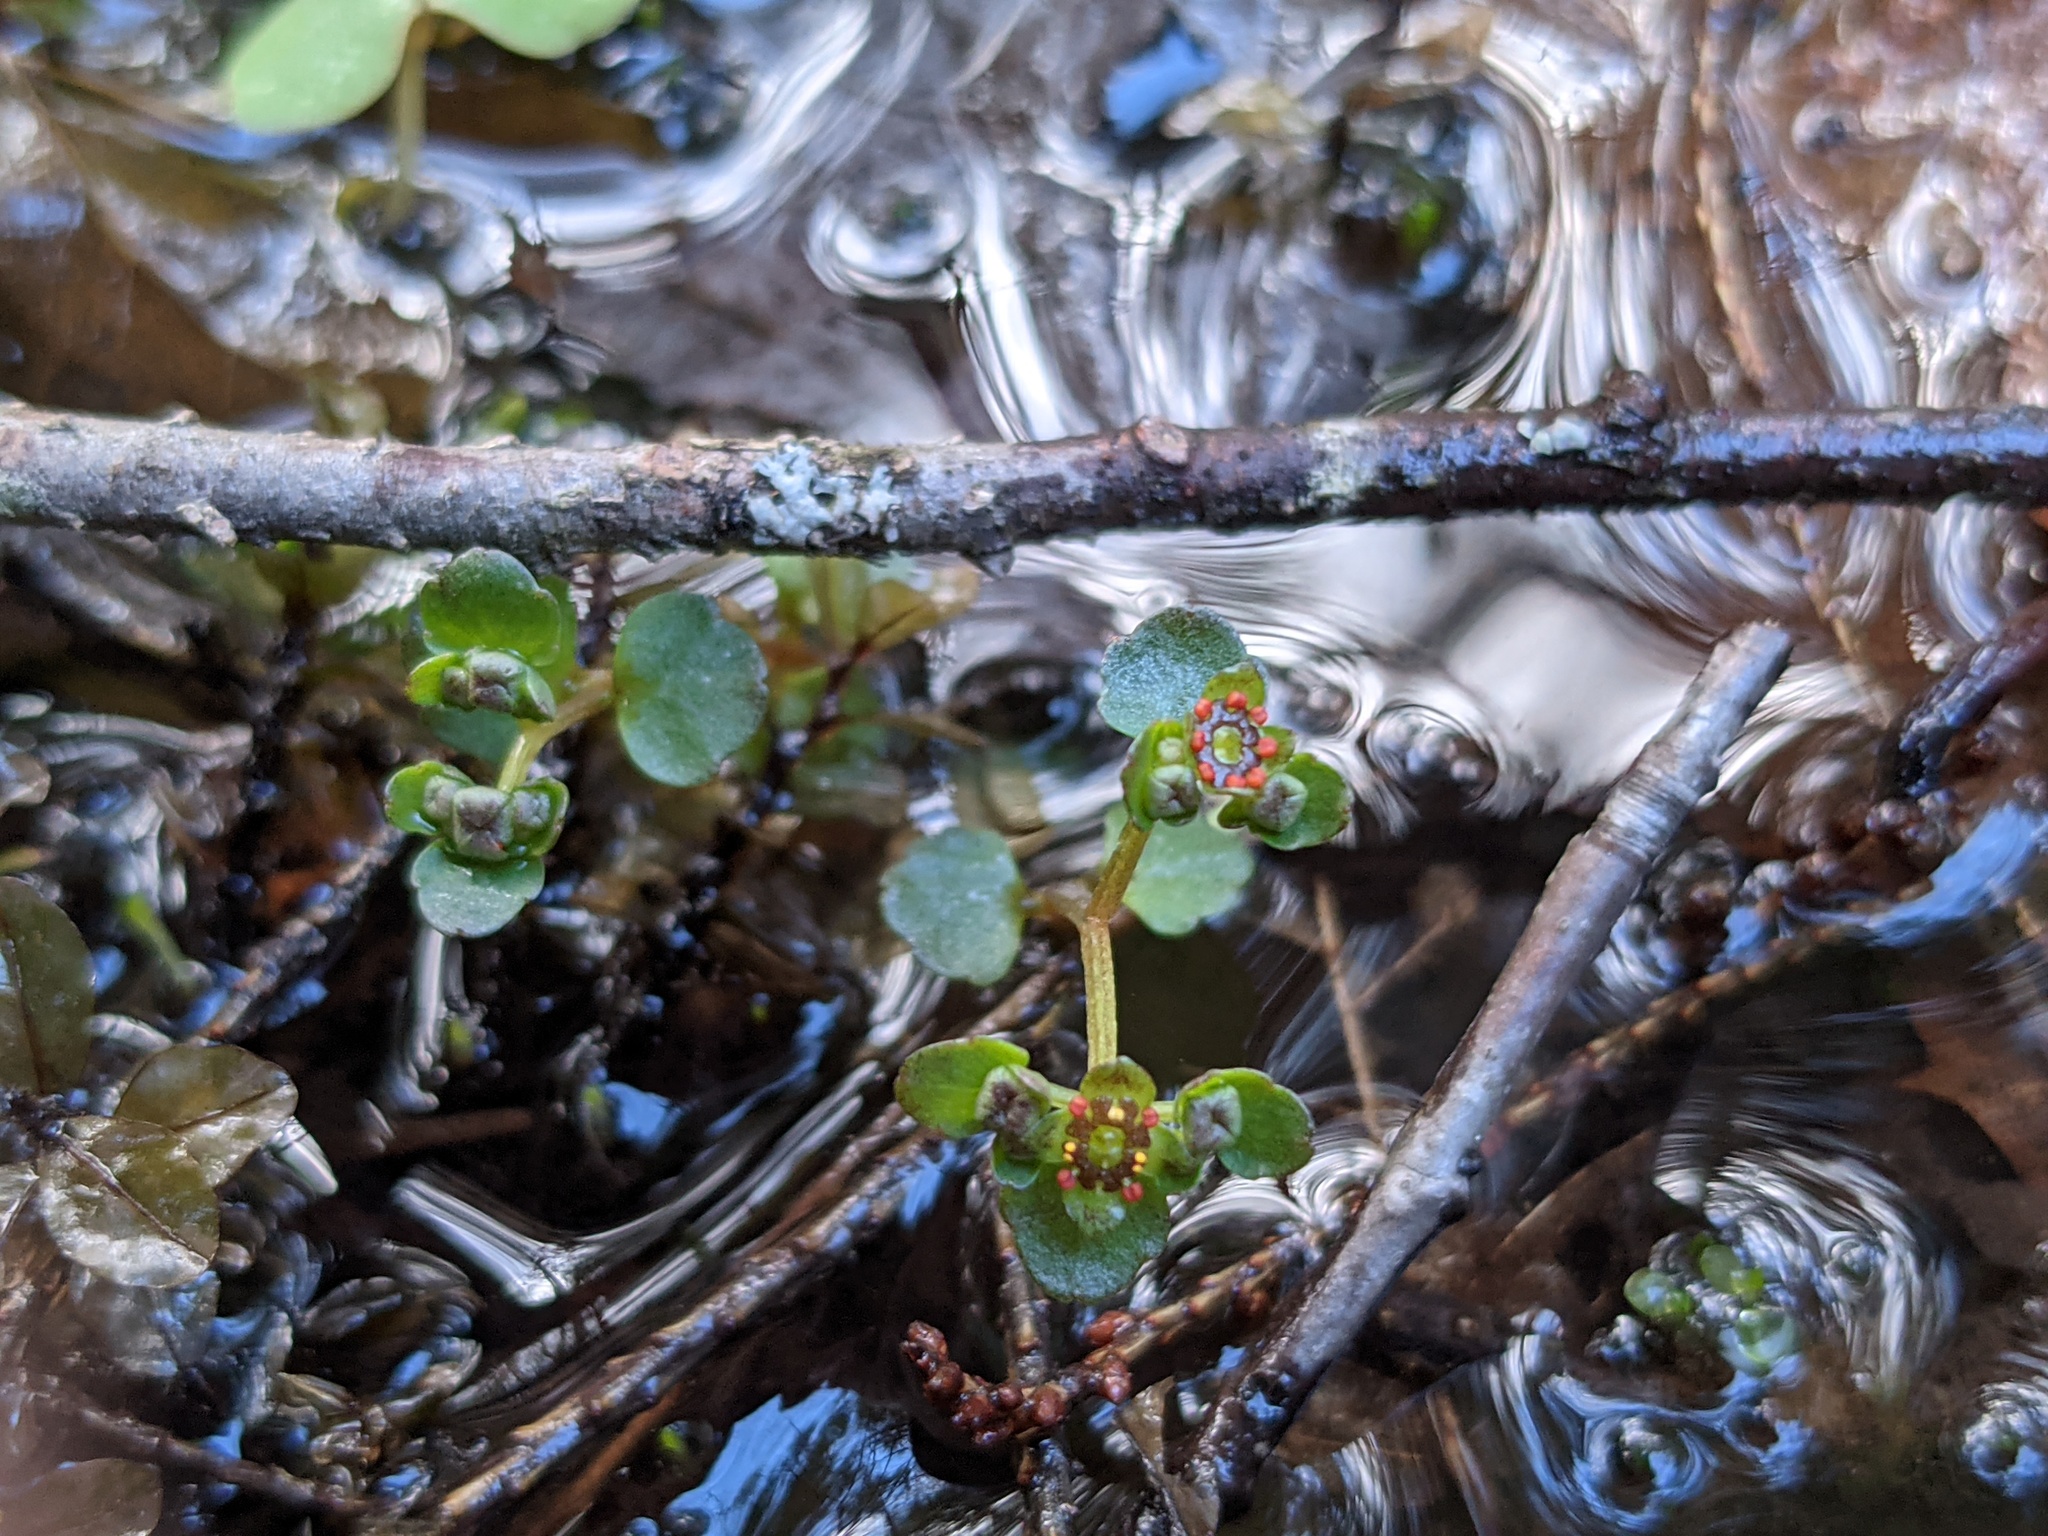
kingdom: Plantae
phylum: Tracheophyta
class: Magnoliopsida
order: Saxifragales
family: Saxifragaceae
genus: Chrysosplenium
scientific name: Chrysosplenium americanum
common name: American golden-saxifrage
